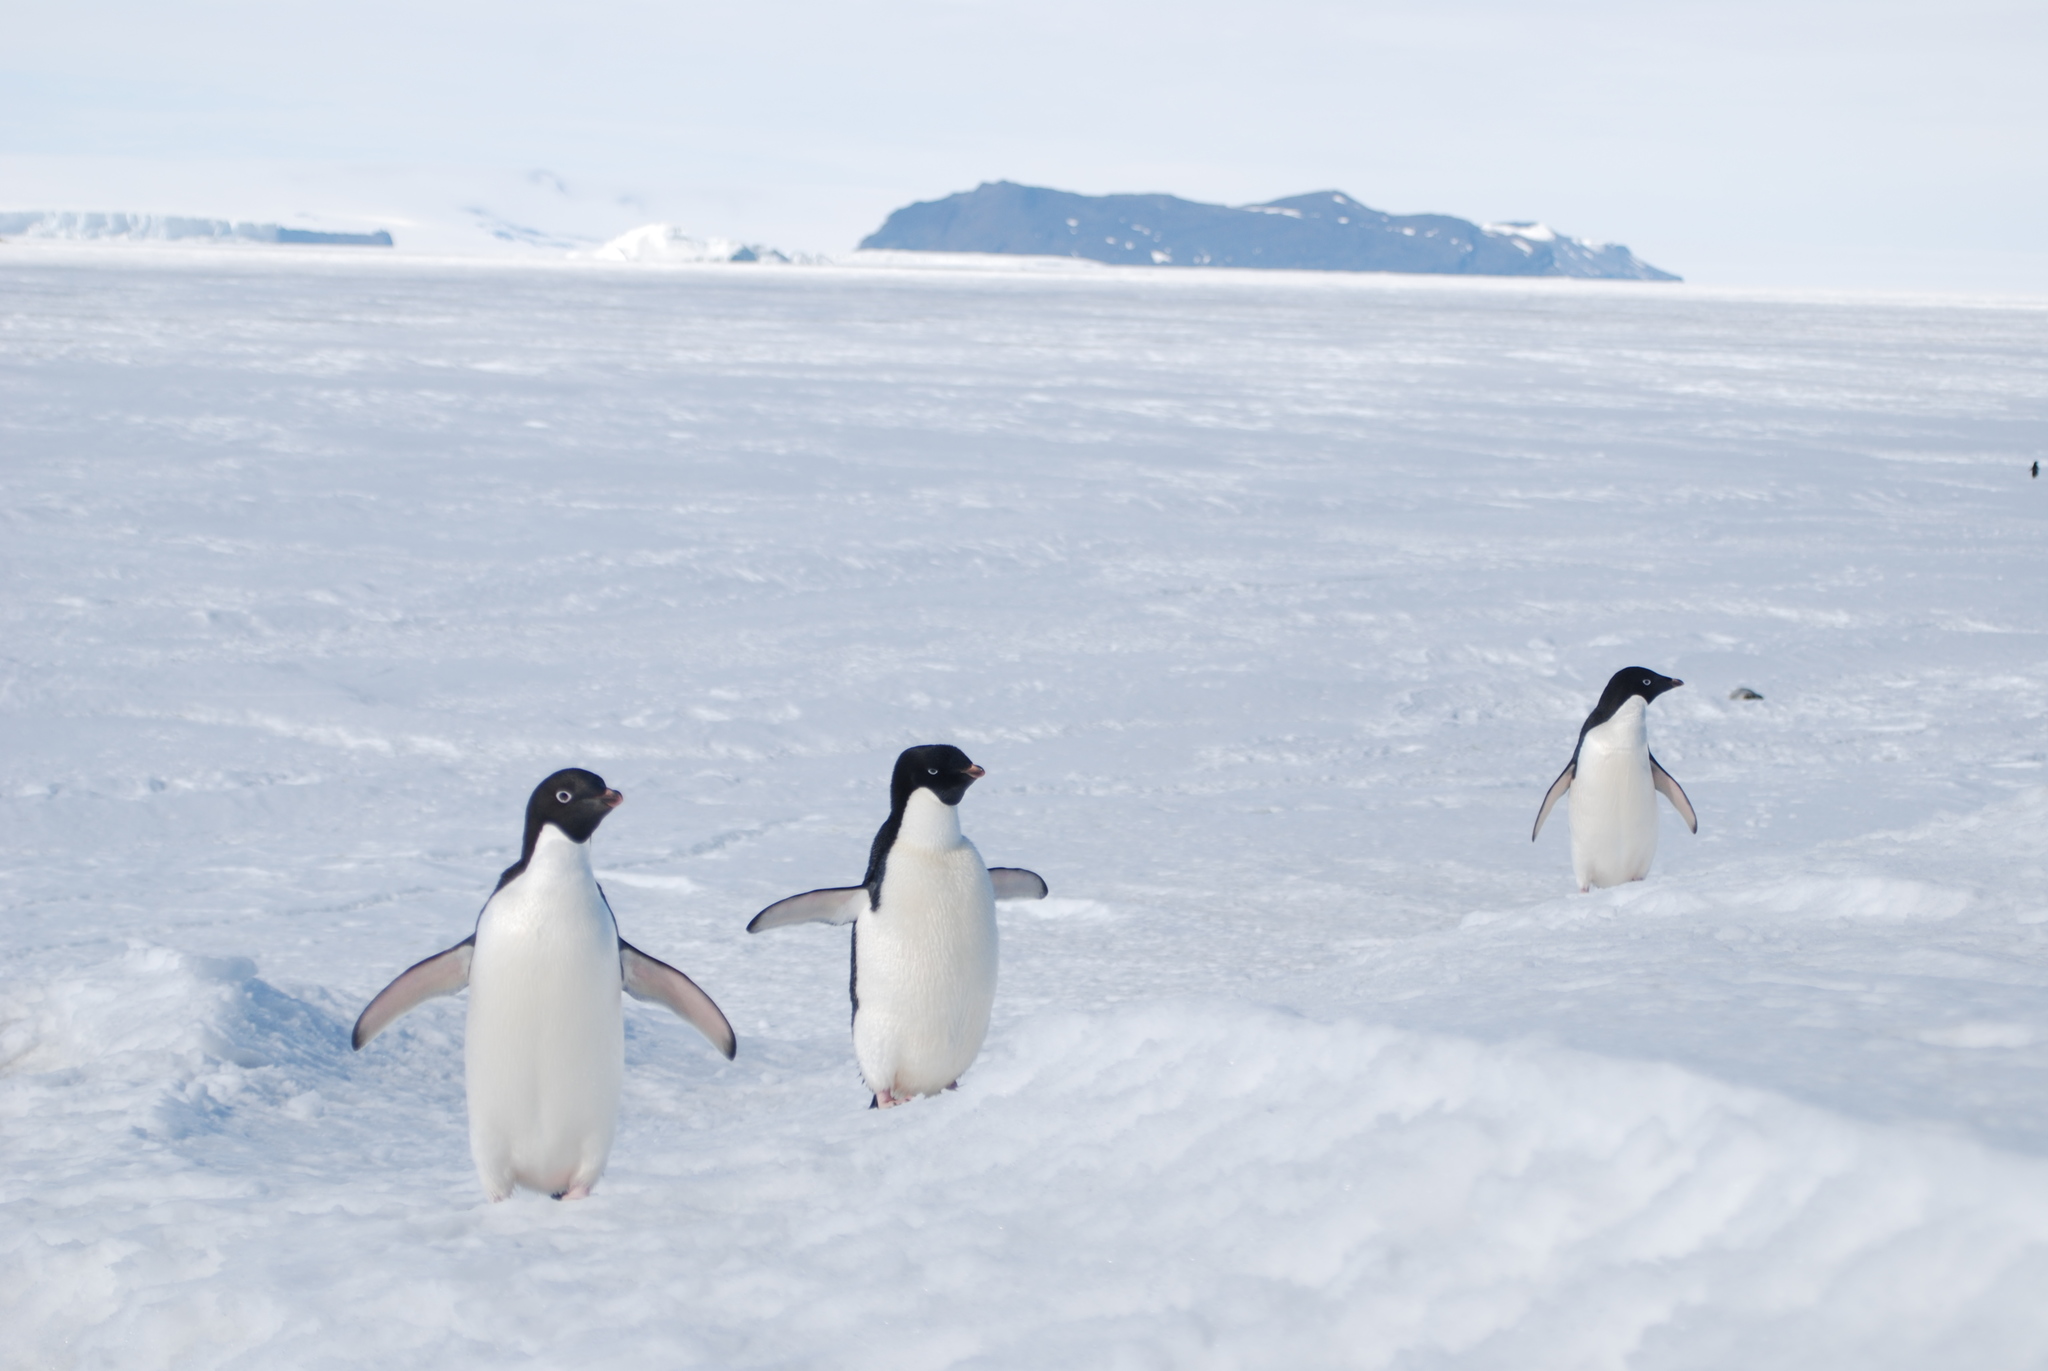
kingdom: Animalia
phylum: Chordata
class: Aves
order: Sphenisciformes
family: Spheniscidae
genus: Pygoscelis
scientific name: Pygoscelis adeliae
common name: Adelie penguin
